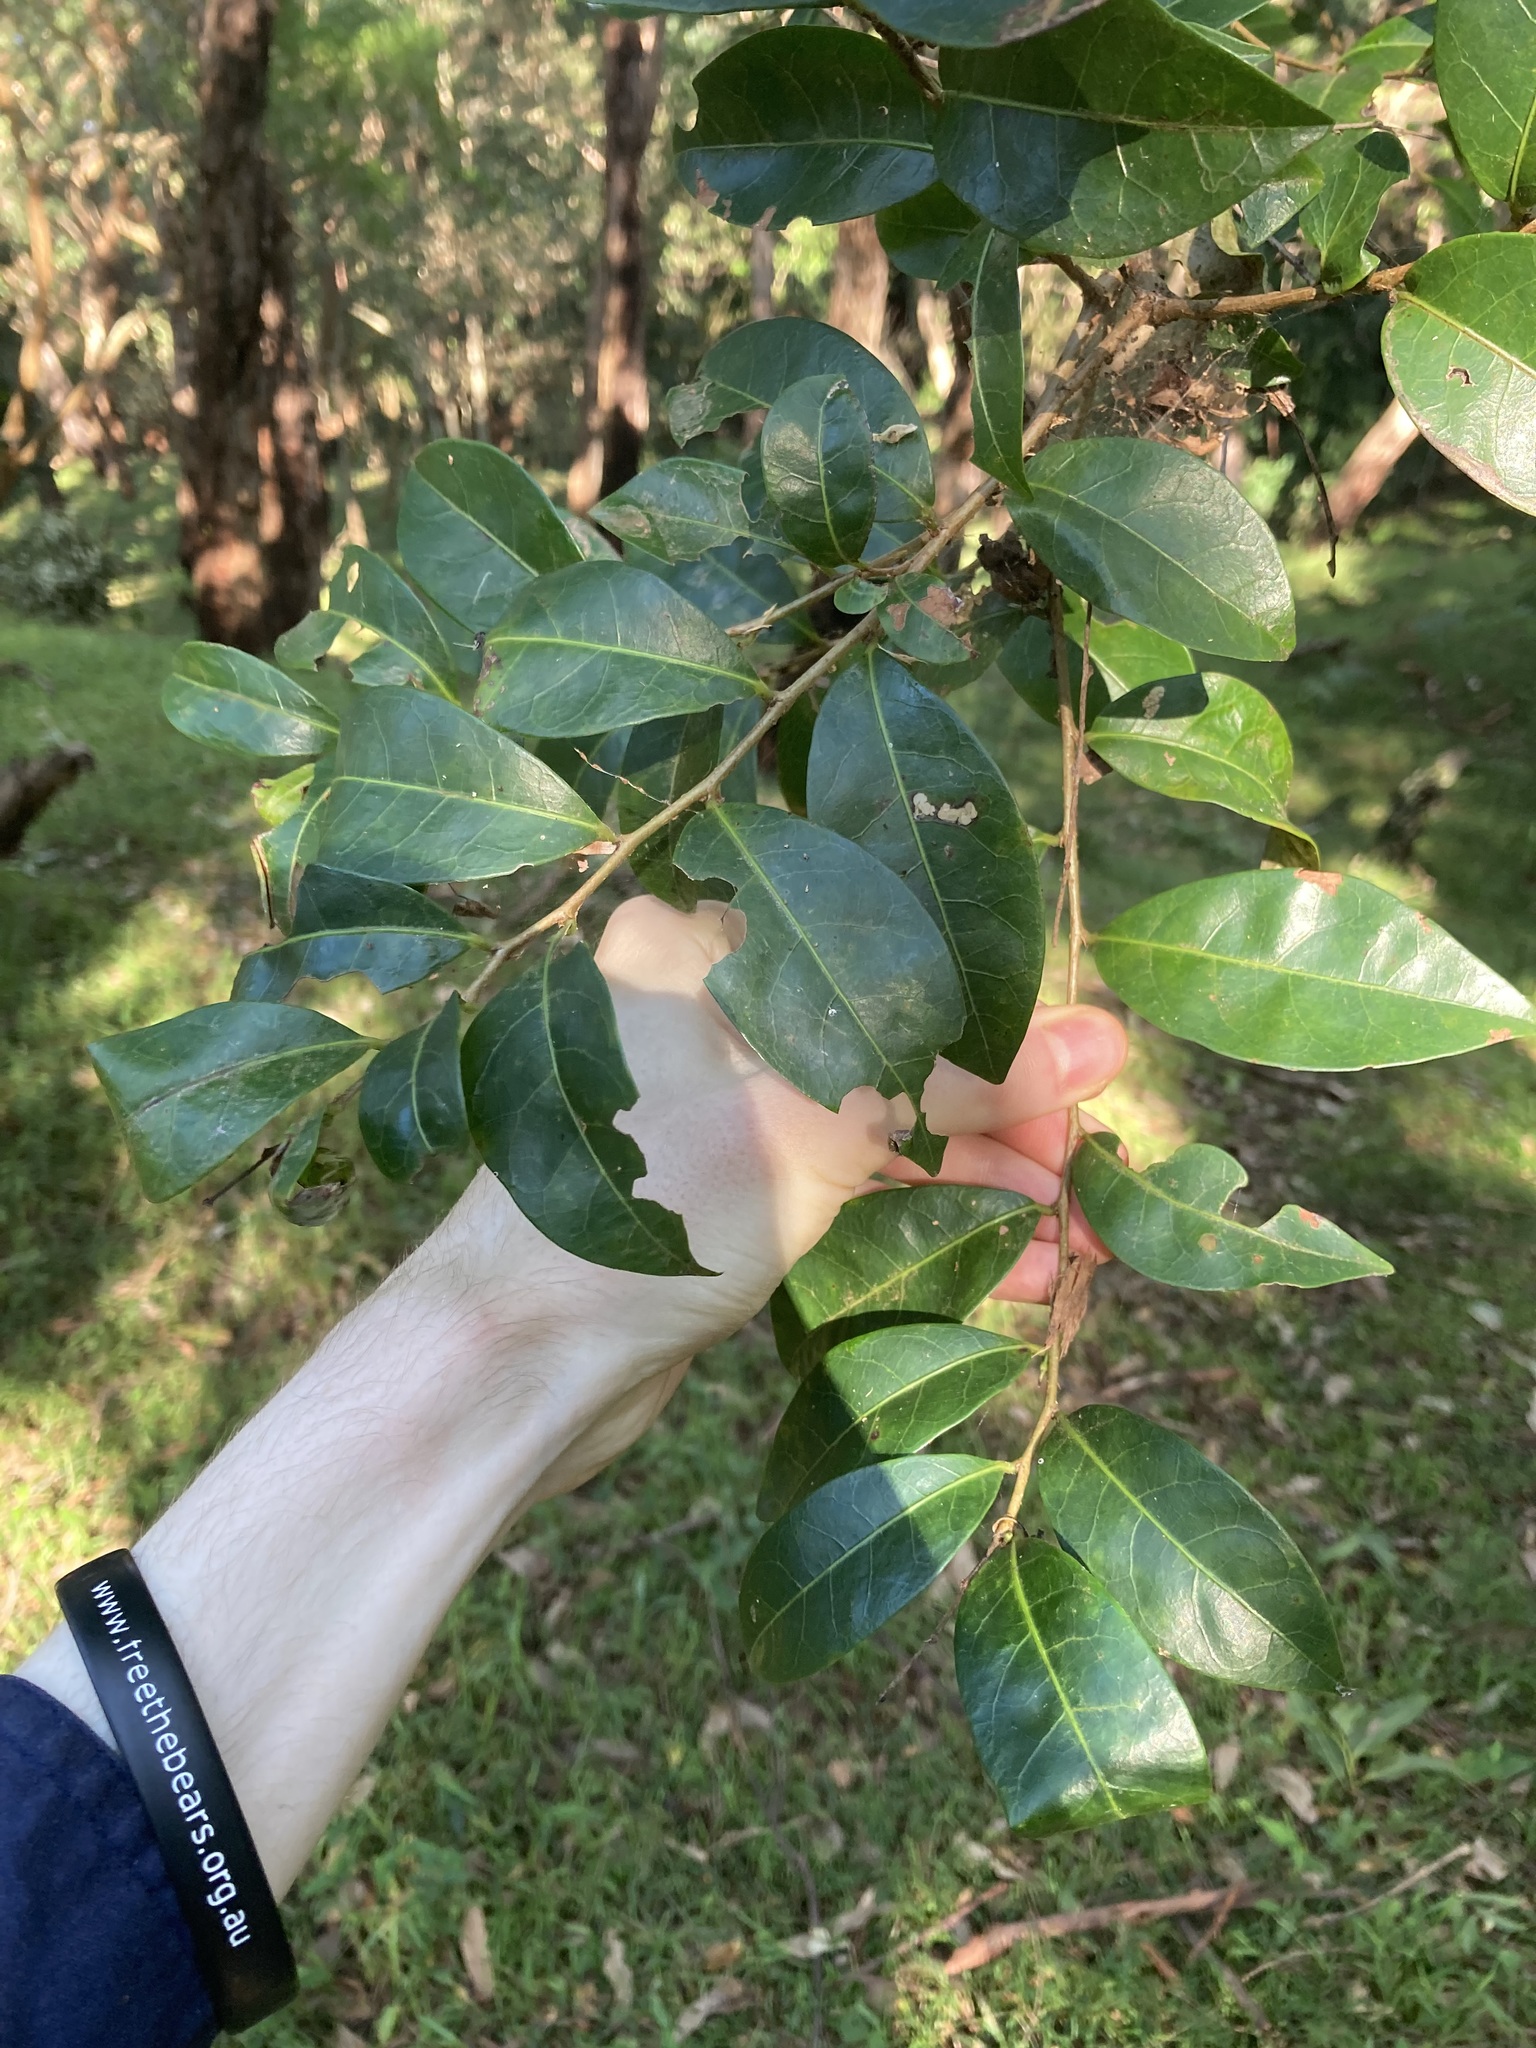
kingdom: Plantae
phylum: Tracheophyta
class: Magnoliopsida
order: Malpighiales
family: Phyllanthaceae
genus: Glochidion
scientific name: Glochidion ferdinandi
